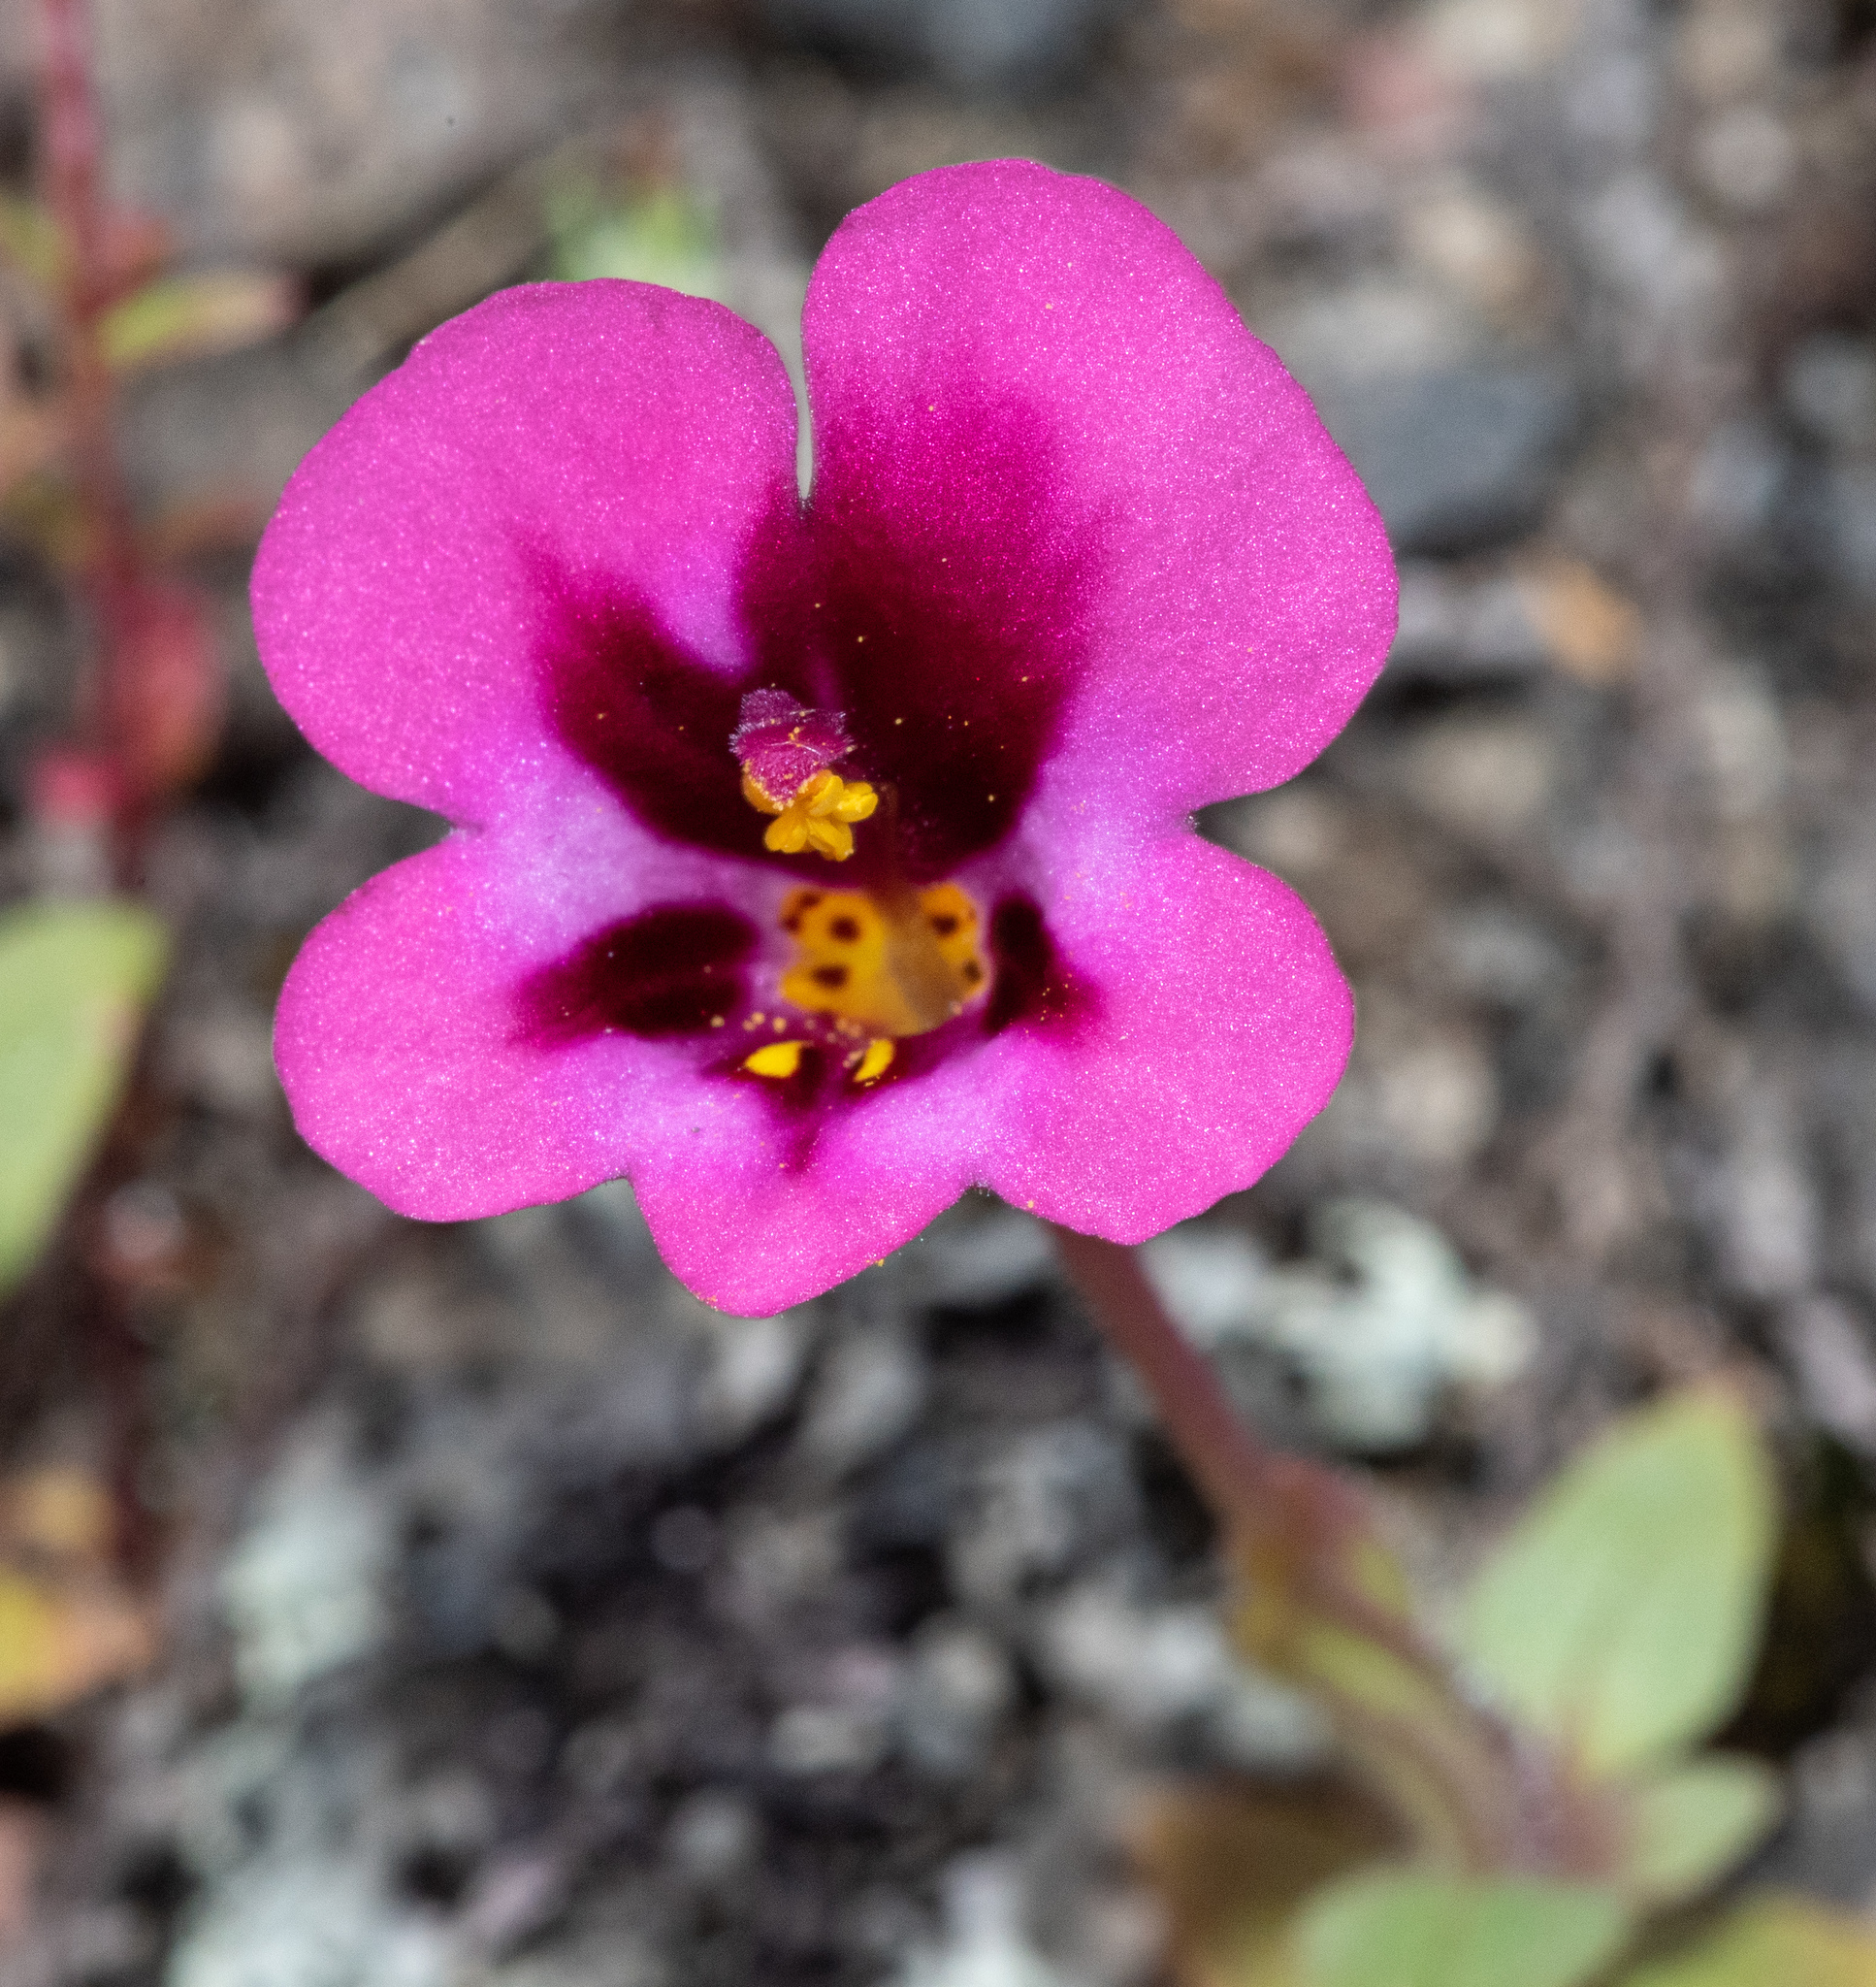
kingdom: Plantae
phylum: Tracheophyta
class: Magnoliopsida
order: Lamiales
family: Phrymaceae
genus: Diplacus
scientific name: Diplacus kelloggii
